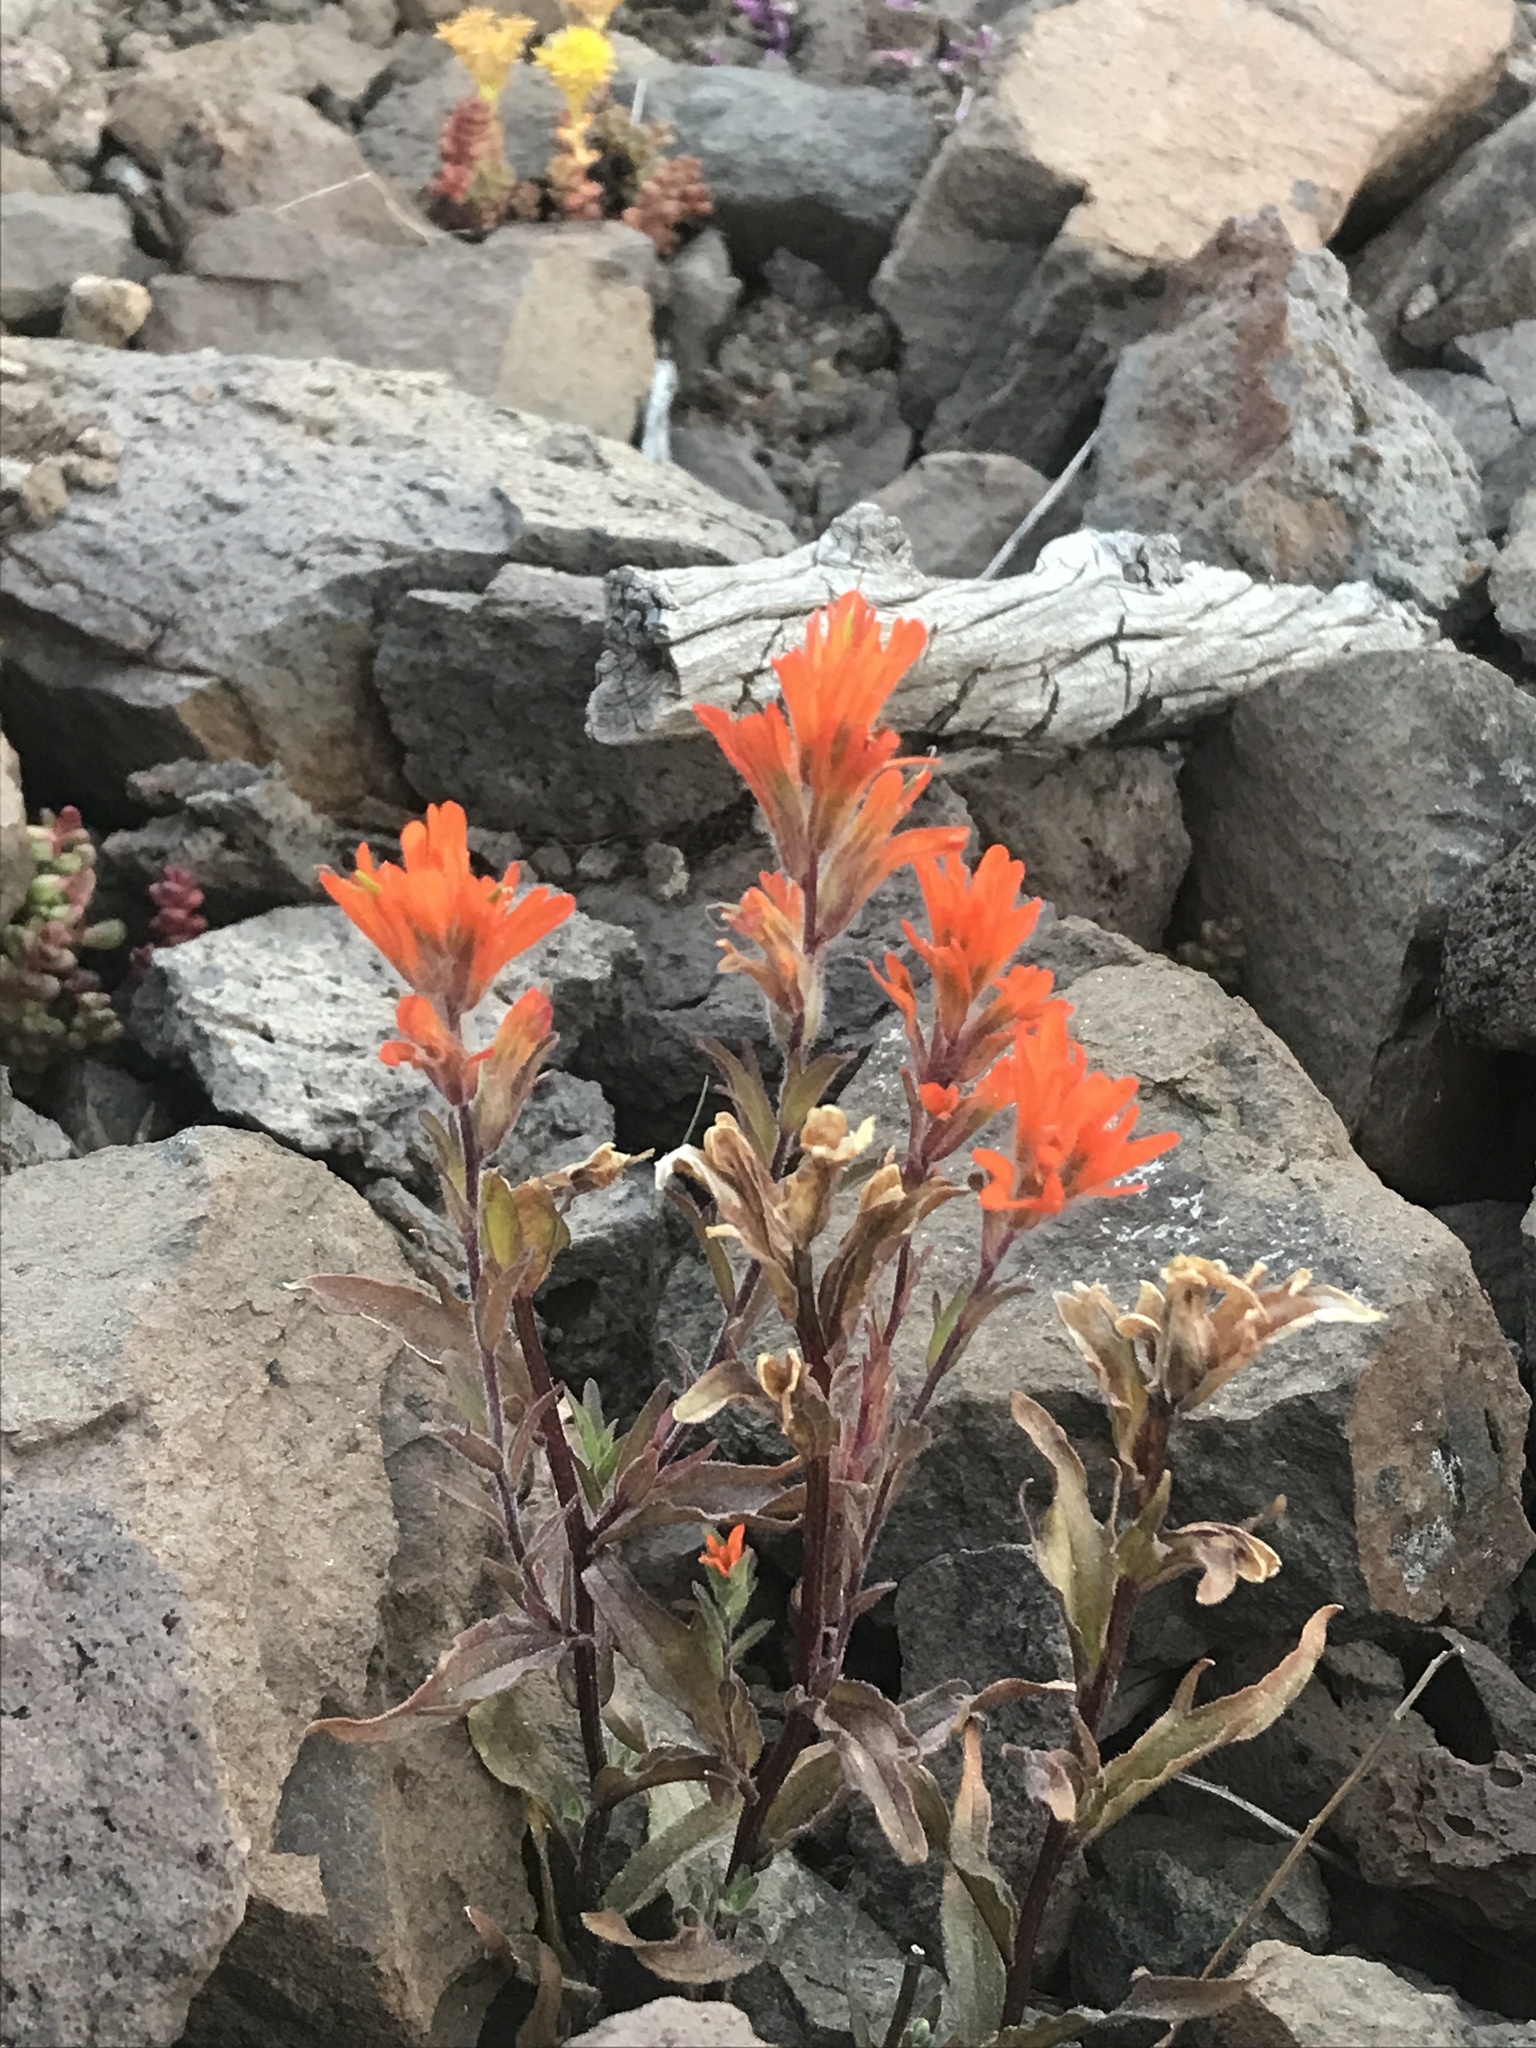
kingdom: Plantae
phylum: Tracheophyta
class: Magnoliopsida
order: Lamiales
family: Orobanchaceae
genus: Castilleja
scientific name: Castilleja hispida
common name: Bristly paintbrush
